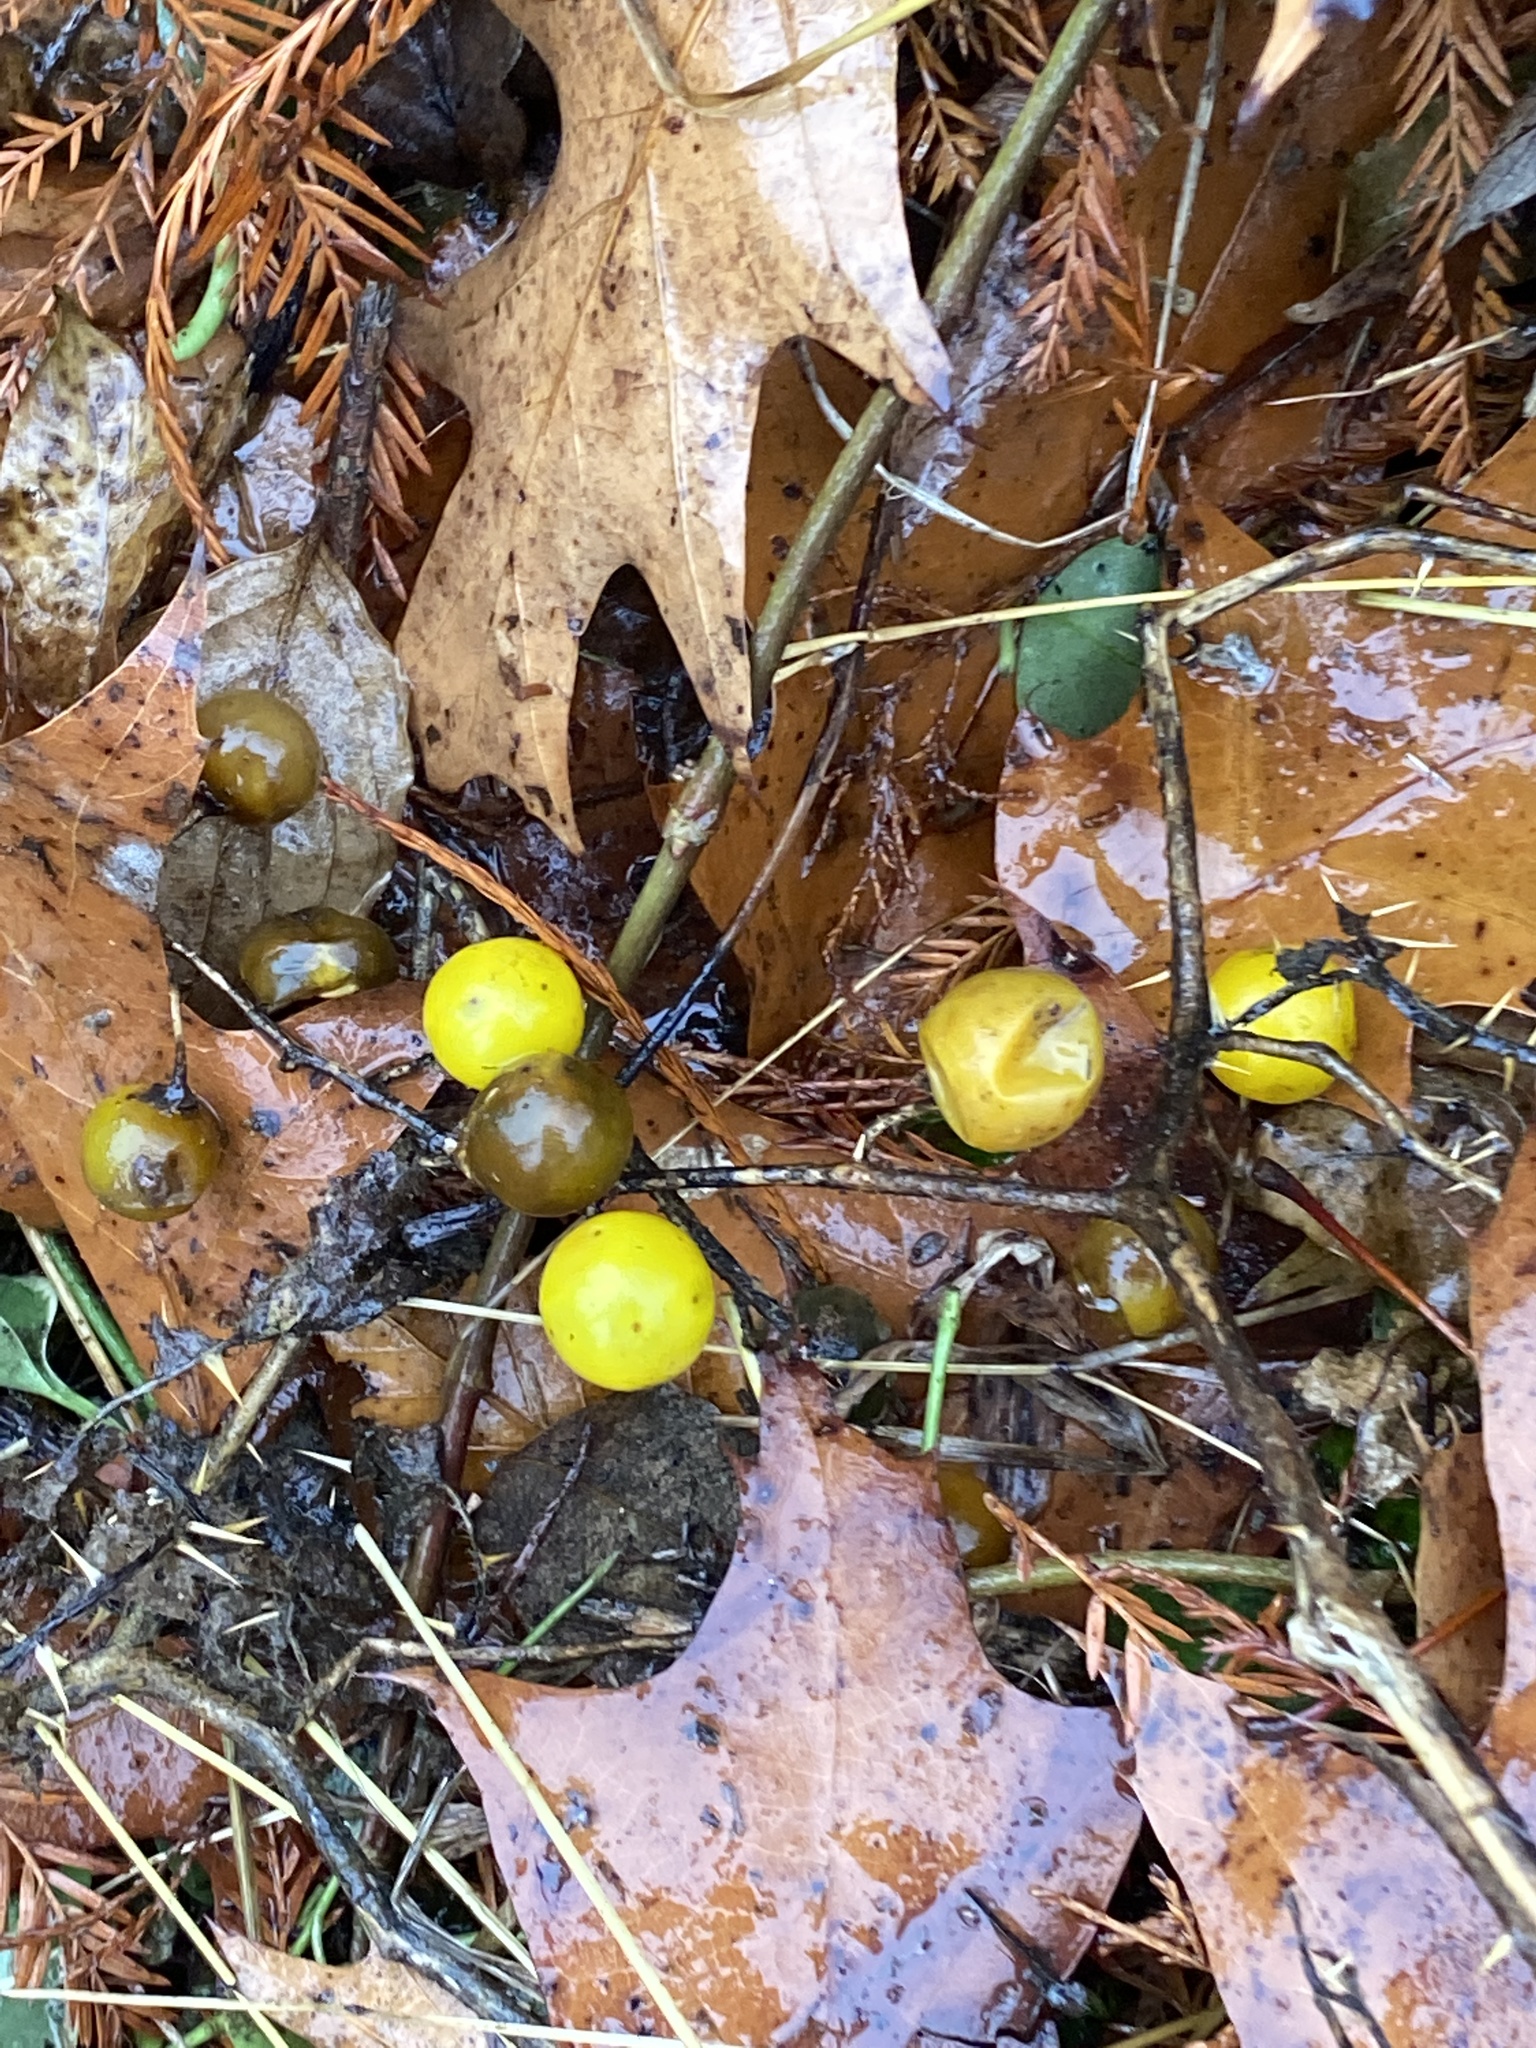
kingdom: Plantae
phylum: Tracheophyta
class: Magnoliopsida
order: Solanales
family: Solanaceae
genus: Solanum
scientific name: Solanum carolinense
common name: Horse-nettle
